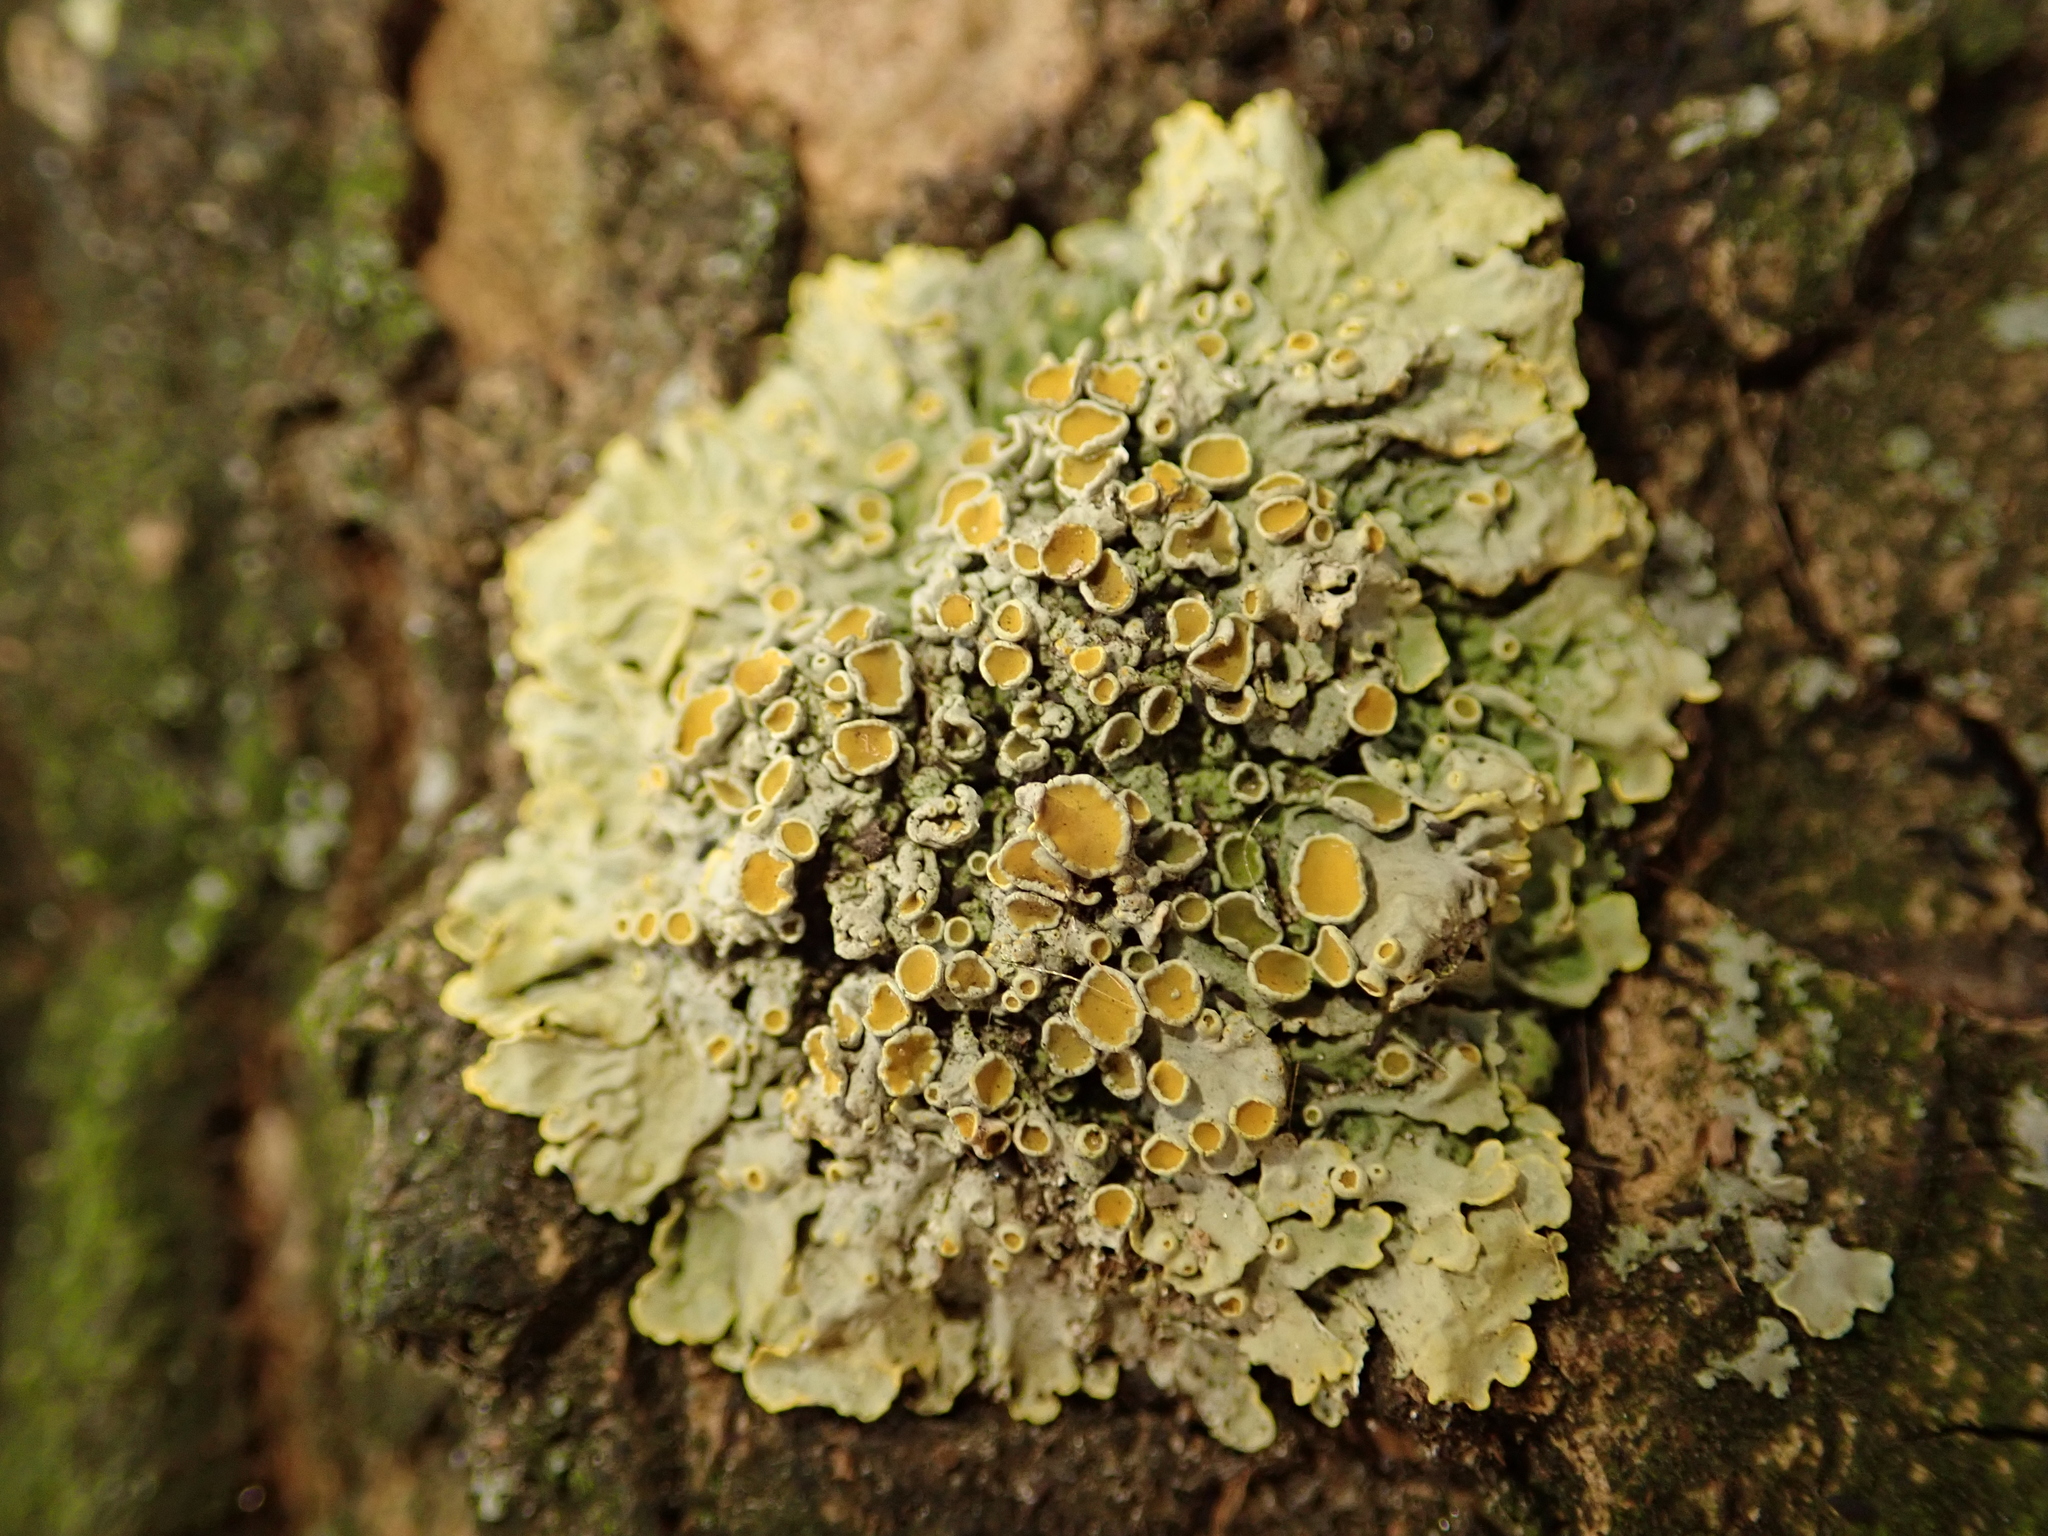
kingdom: Fungi
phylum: Ascomycota
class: Lecanoromycetes
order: Teloschistales
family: Teloschistaceae
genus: Xanthoria
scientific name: Xanthoria parietina
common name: Common orange lichen
